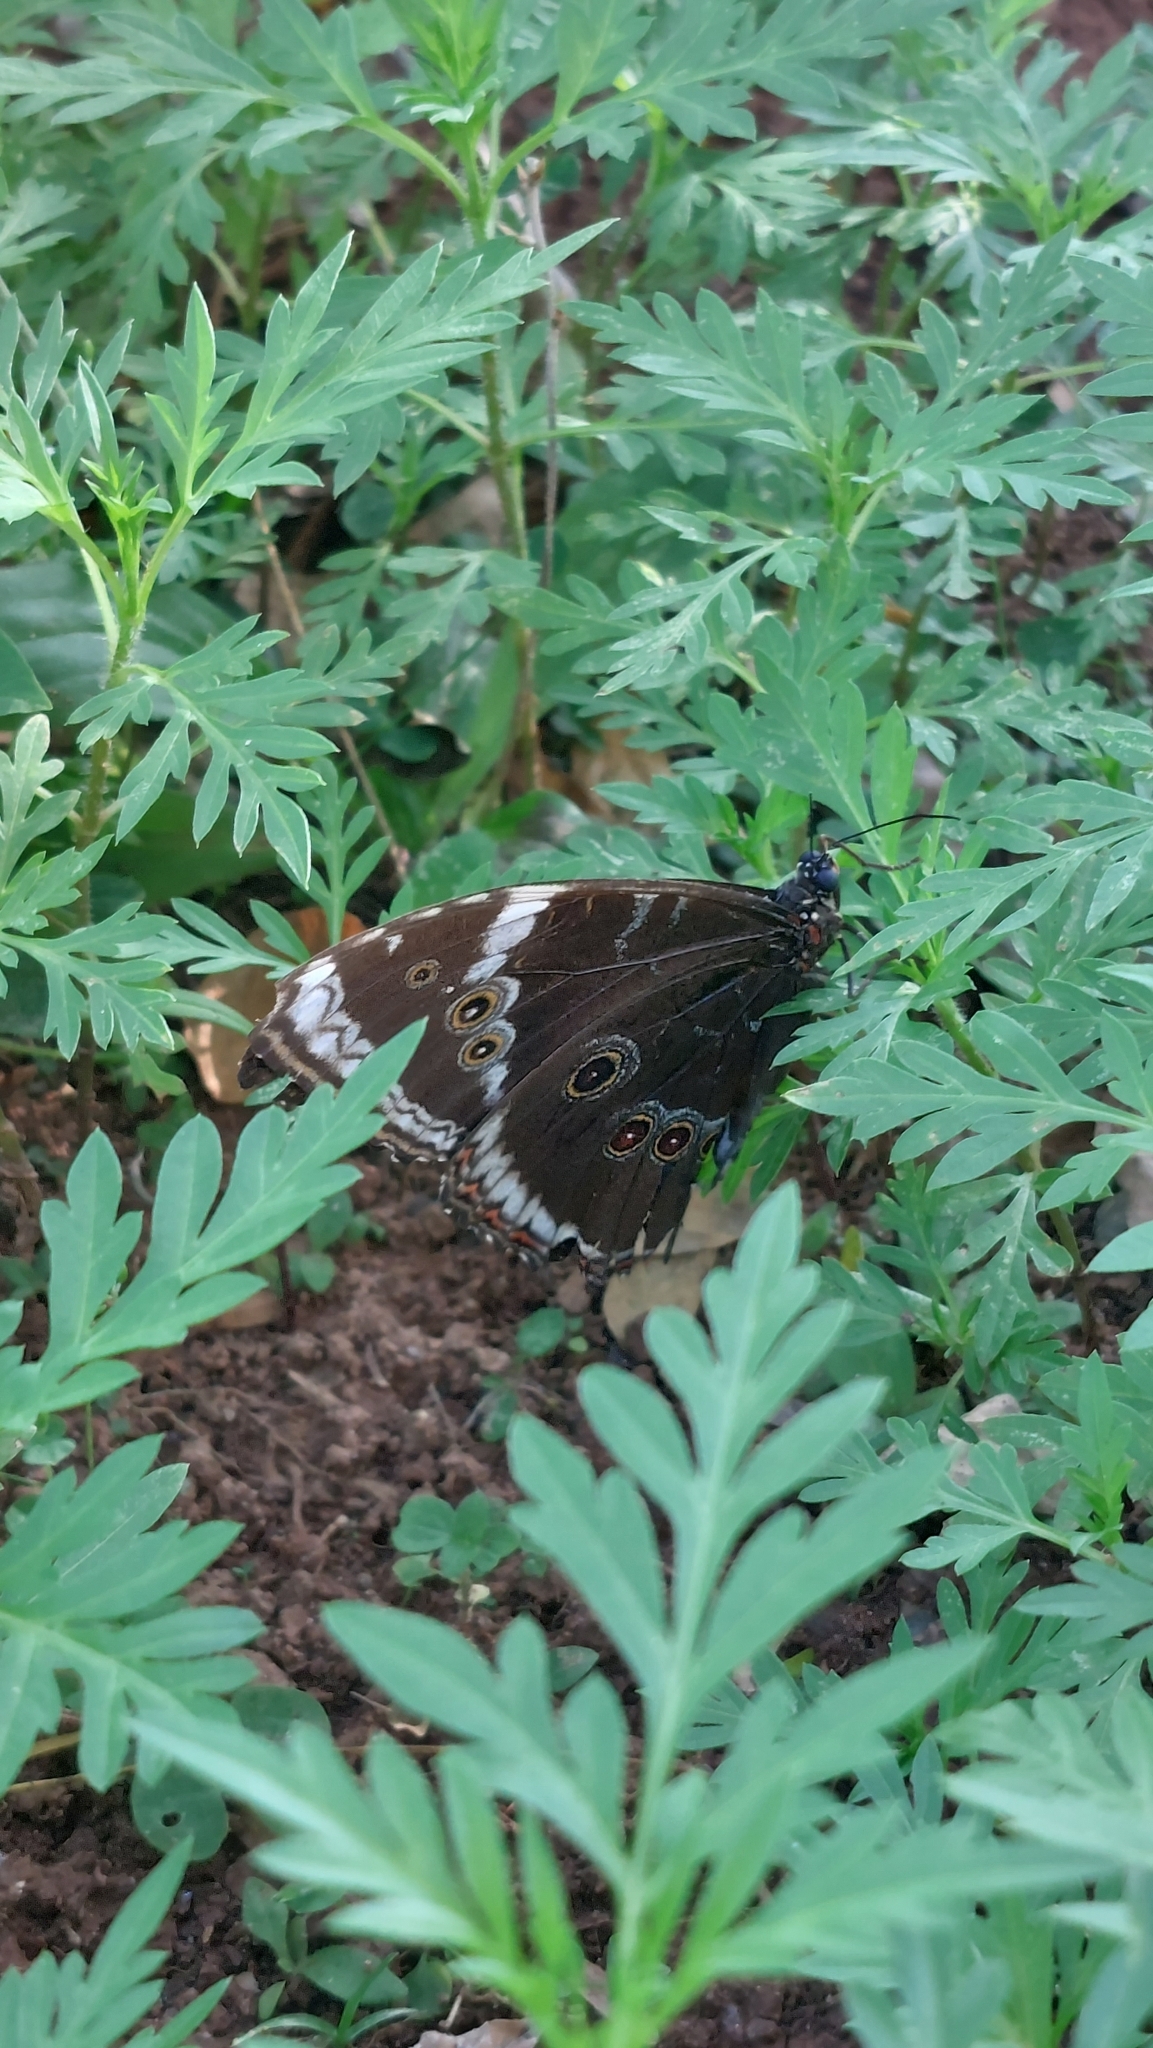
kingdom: Animalia
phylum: Arthropoda
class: Insecta
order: Lepidoptera
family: Nymphalidae
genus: Morpho
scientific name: Morpho helenor
